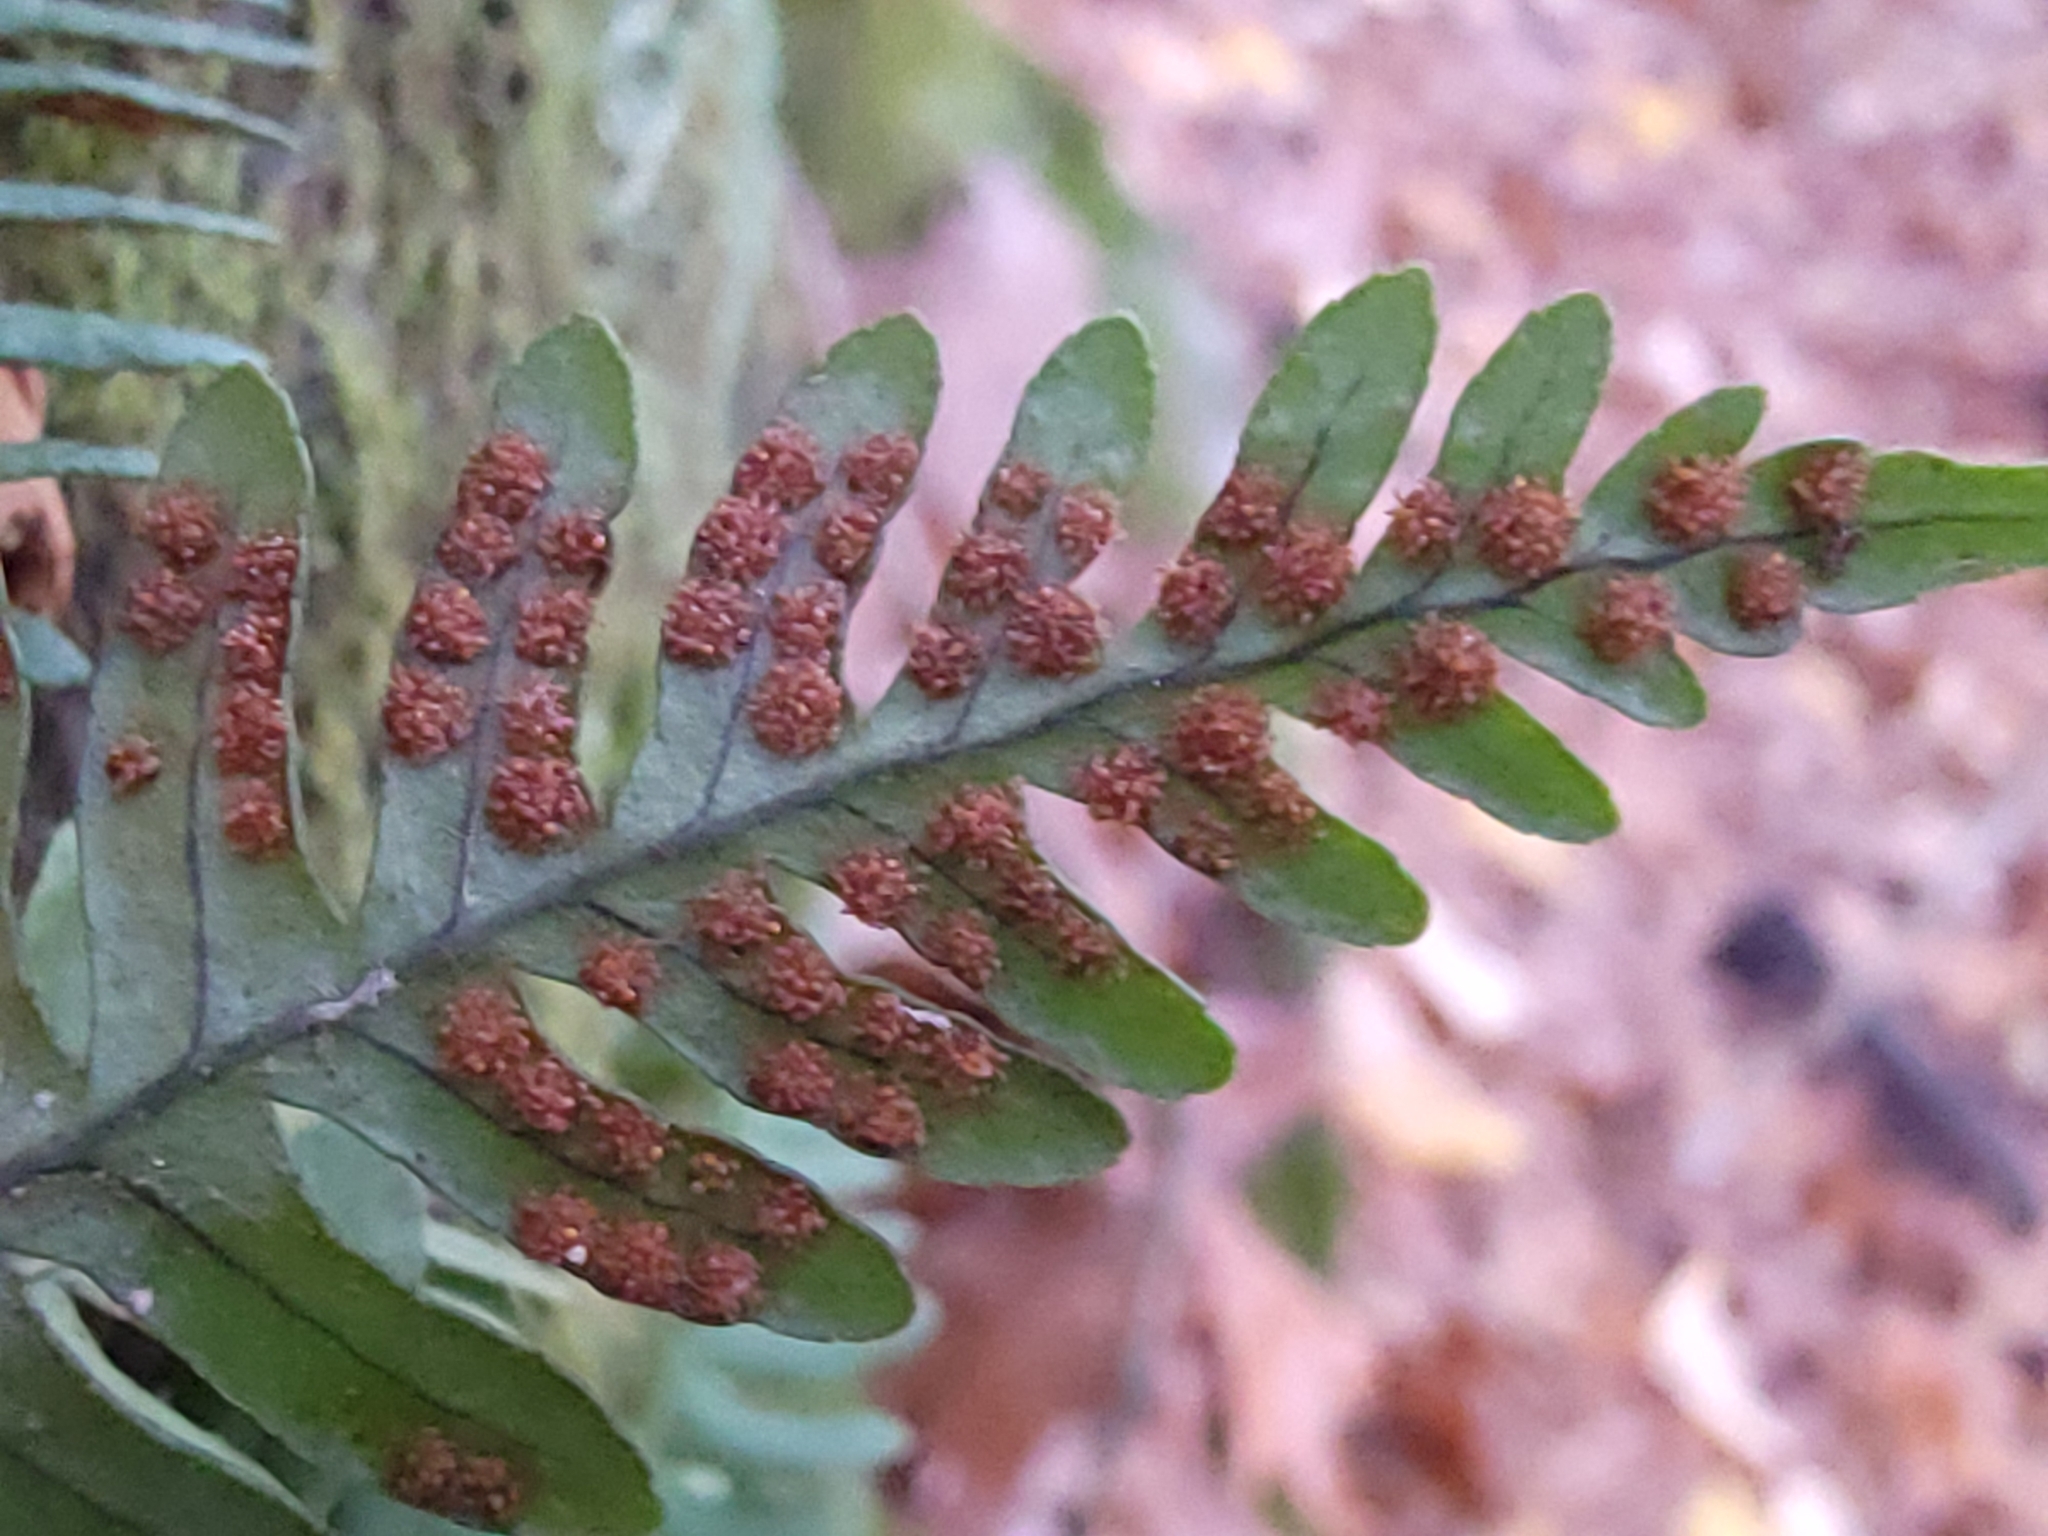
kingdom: Plantae
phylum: Tracheophyta
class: Polypodiopsida
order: Polypodiales
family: Polypodiaceae
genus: Polypodium
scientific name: Polypodium virginianum
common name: American wall fern
